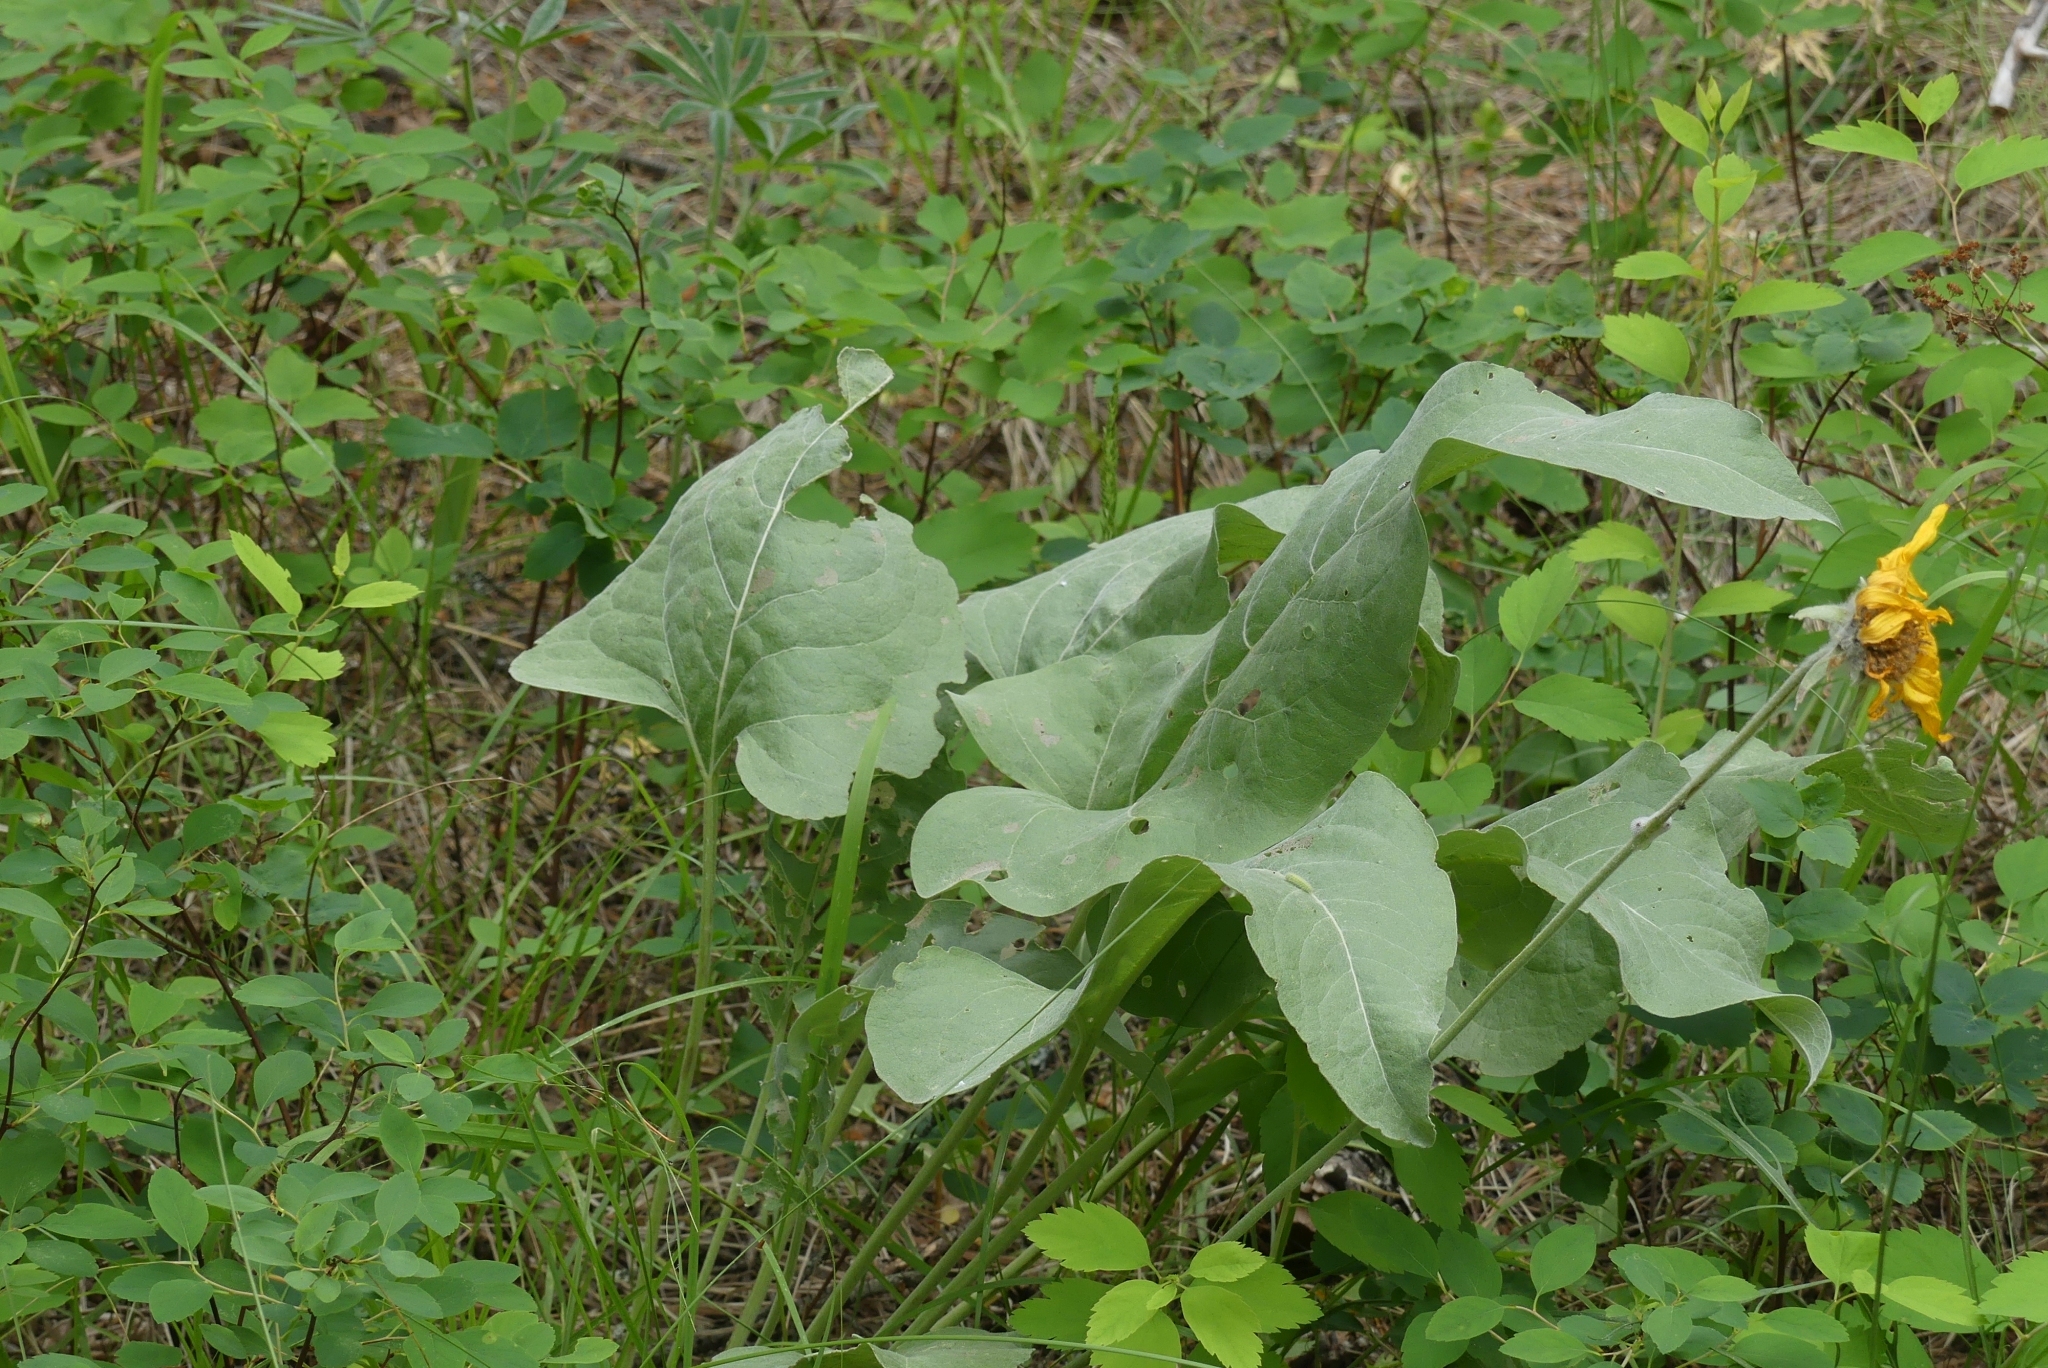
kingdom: Plantae
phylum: Tracheophyta
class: Magnoliopsida
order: Asterales
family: Asteraceae
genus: Wyethia
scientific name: Wyethia sagittata
